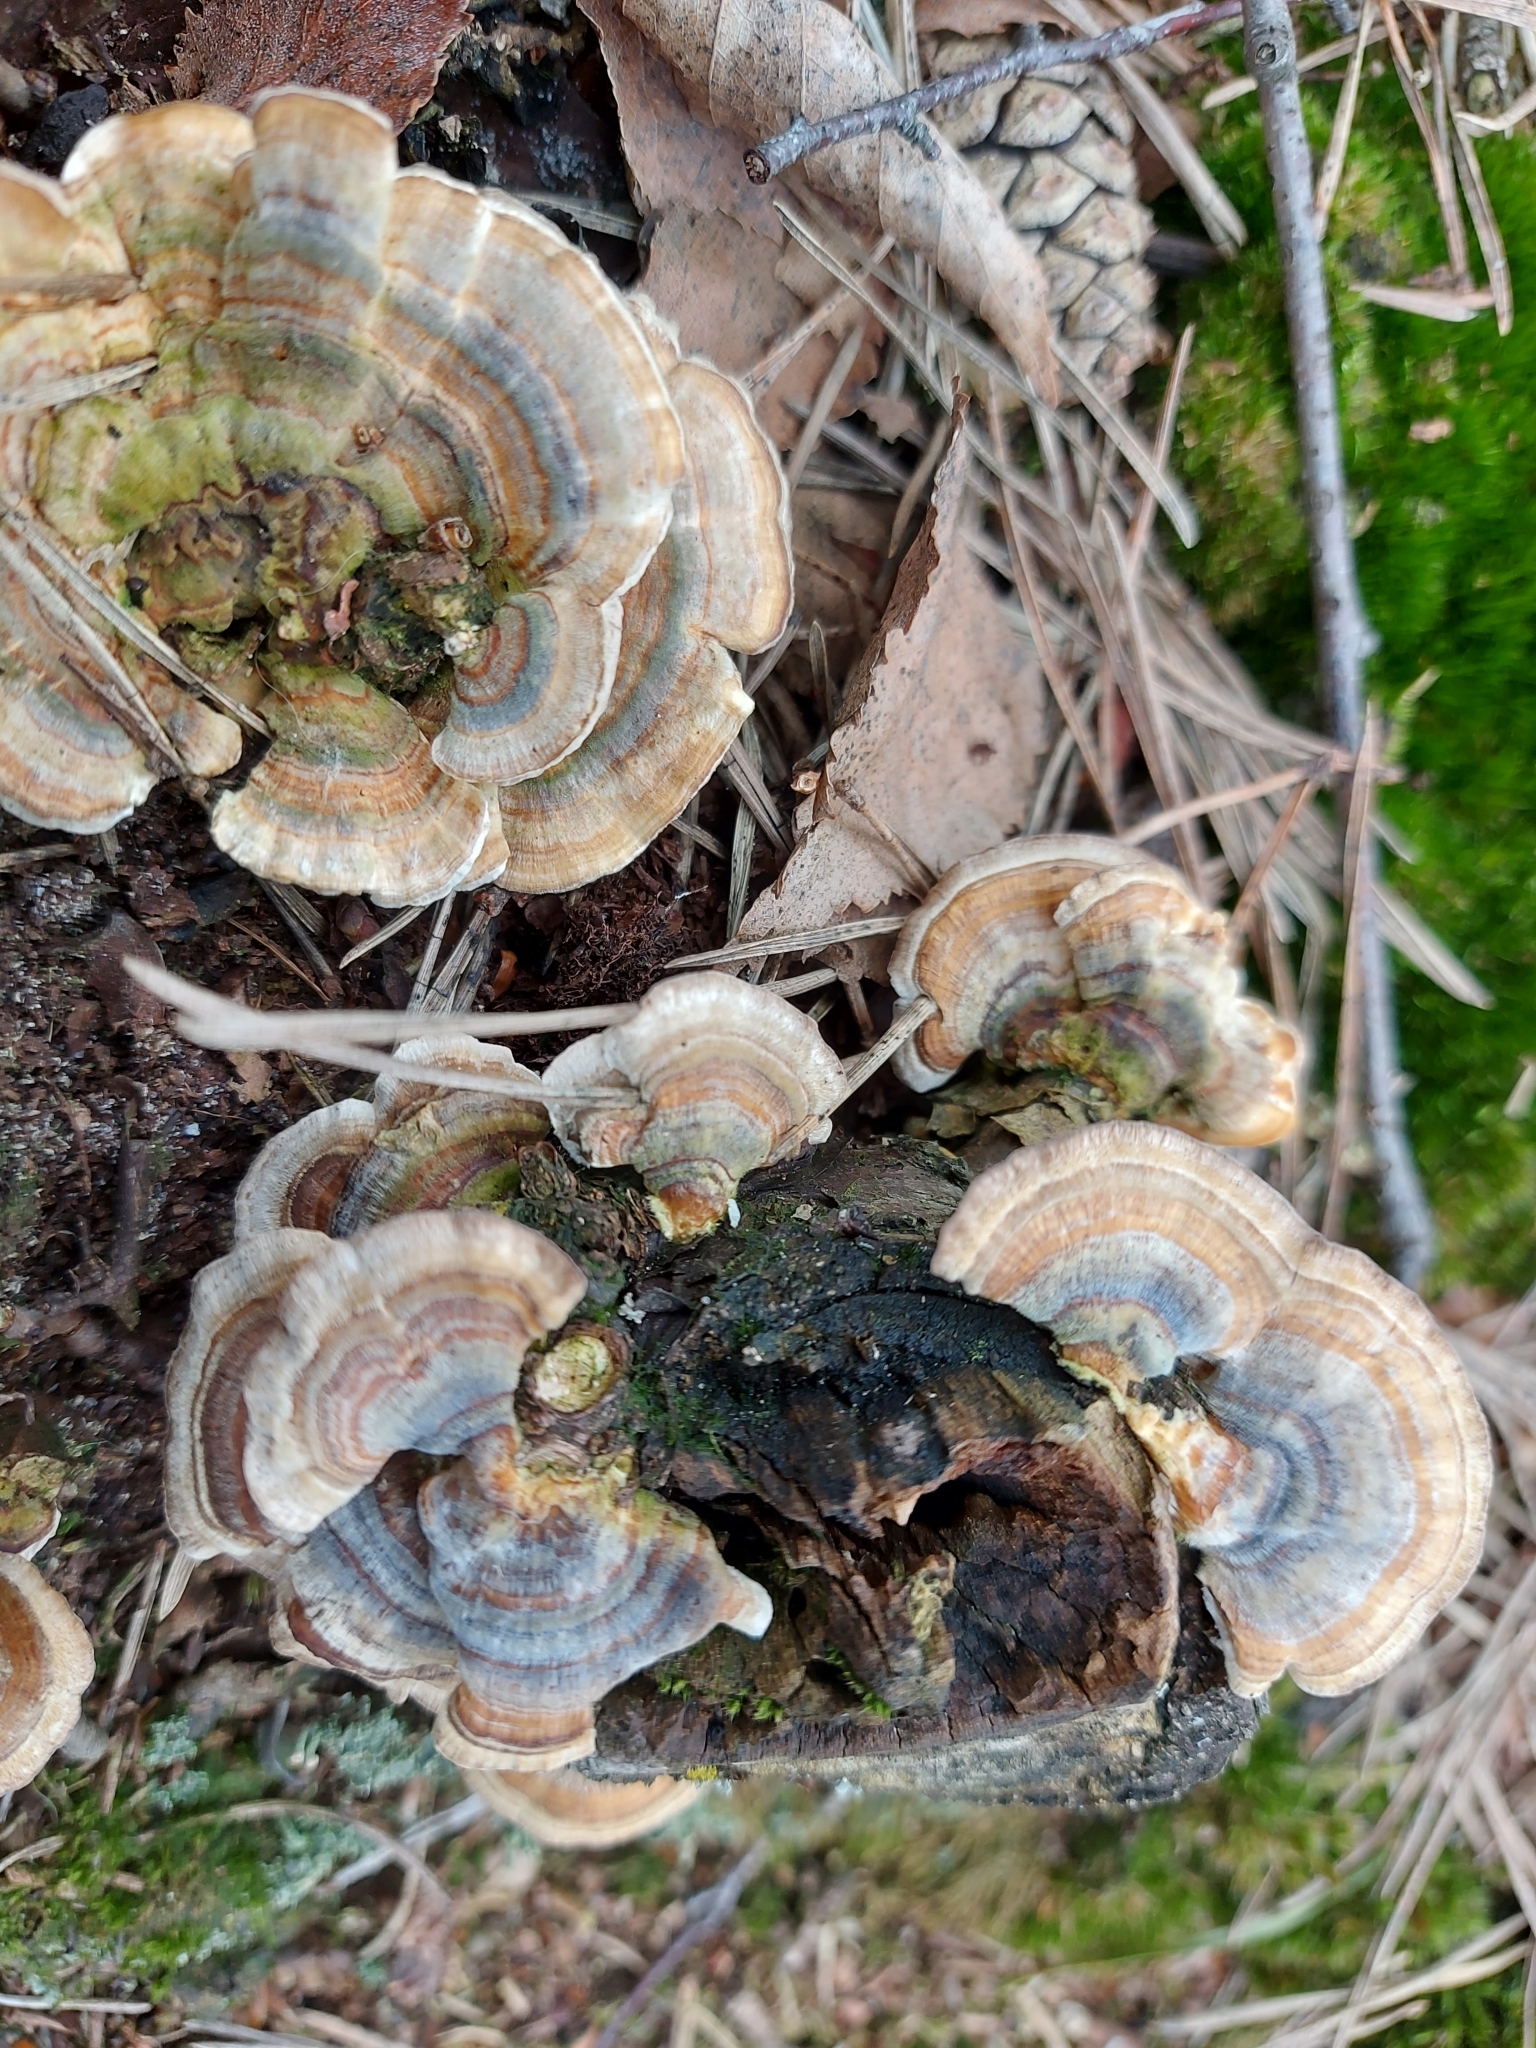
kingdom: Fungi
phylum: Basidiomycota
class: Agaricomycetes
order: Polyporales
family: Polyporaceae
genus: Trametes
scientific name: Trametes versicolor
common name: Turkeytail
